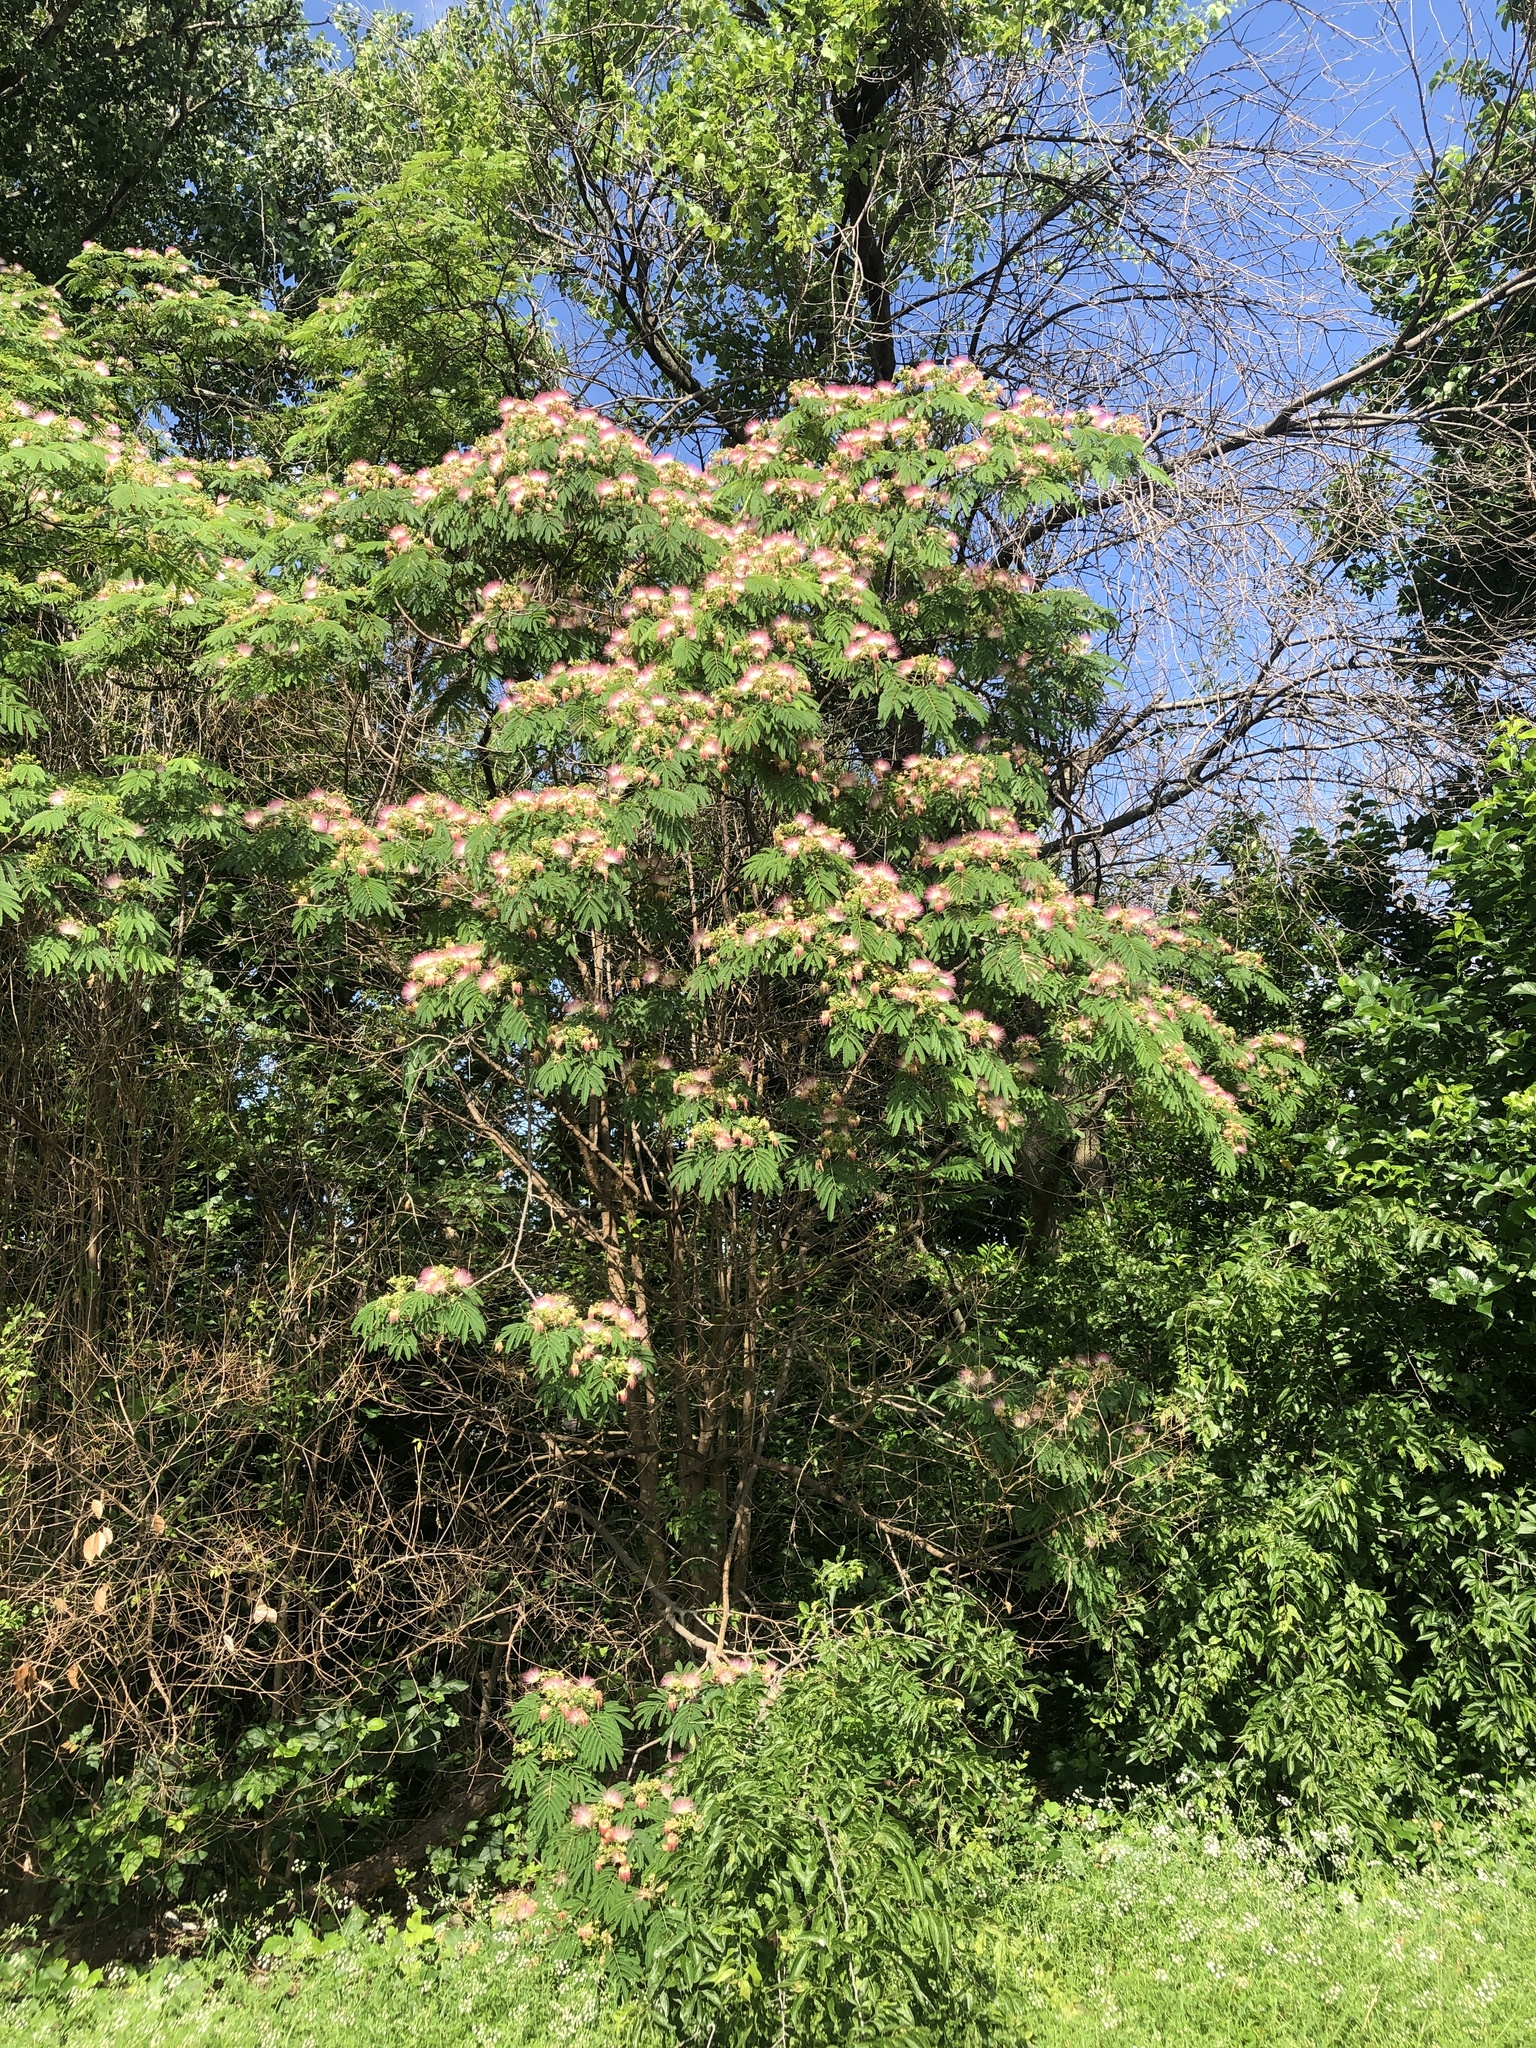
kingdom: Plantae
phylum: Tracheophyta
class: Magnoliopsida
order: Fabales
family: Fabaceae
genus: Albizia
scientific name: Albizia julibrissin
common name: Silktree
